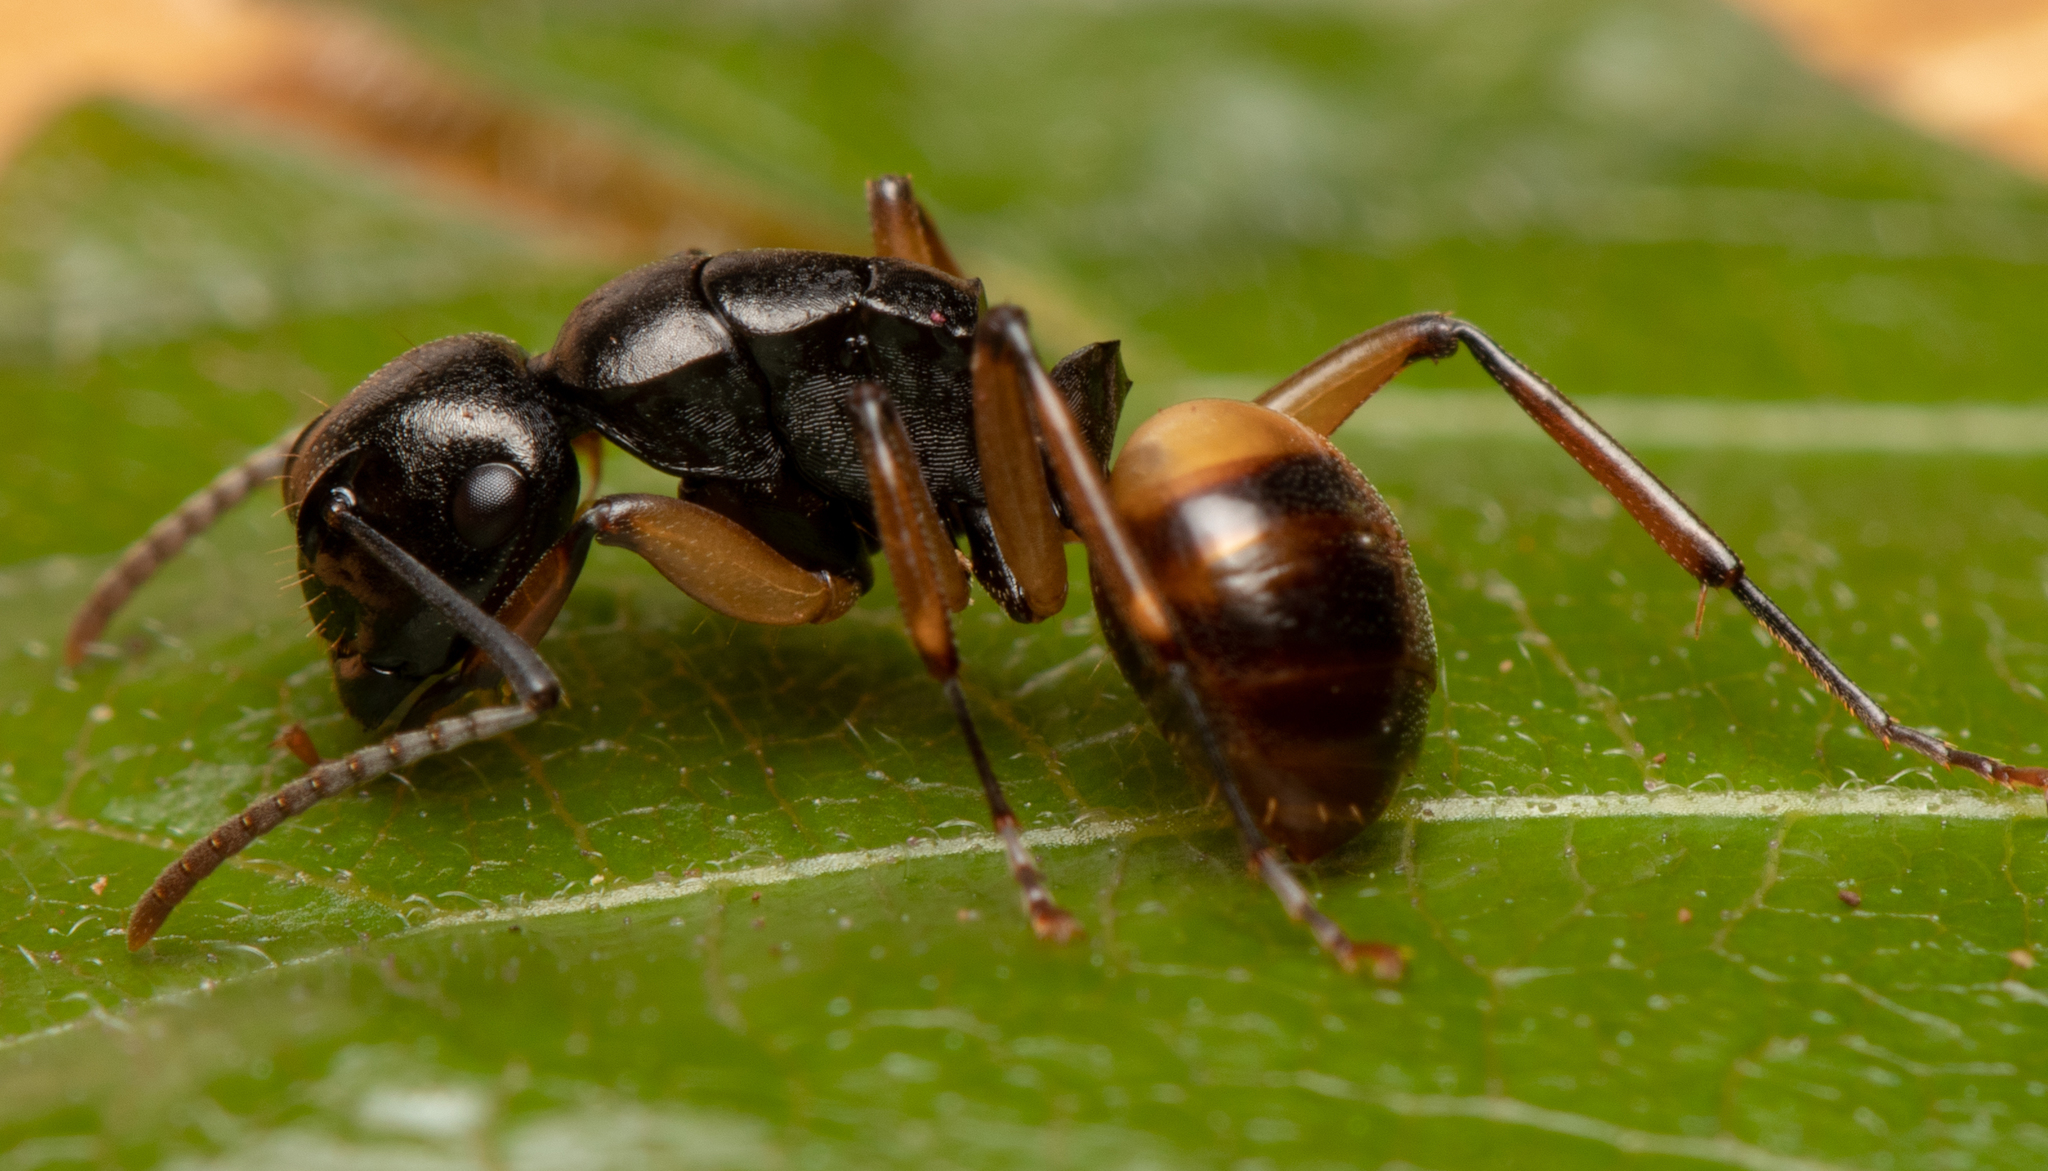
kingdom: Animalia
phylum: Arthropoda
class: Insecta
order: Hymenoptera
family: Formicidae
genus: Polyrhachis
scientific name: Polyrhachis flavibasis
